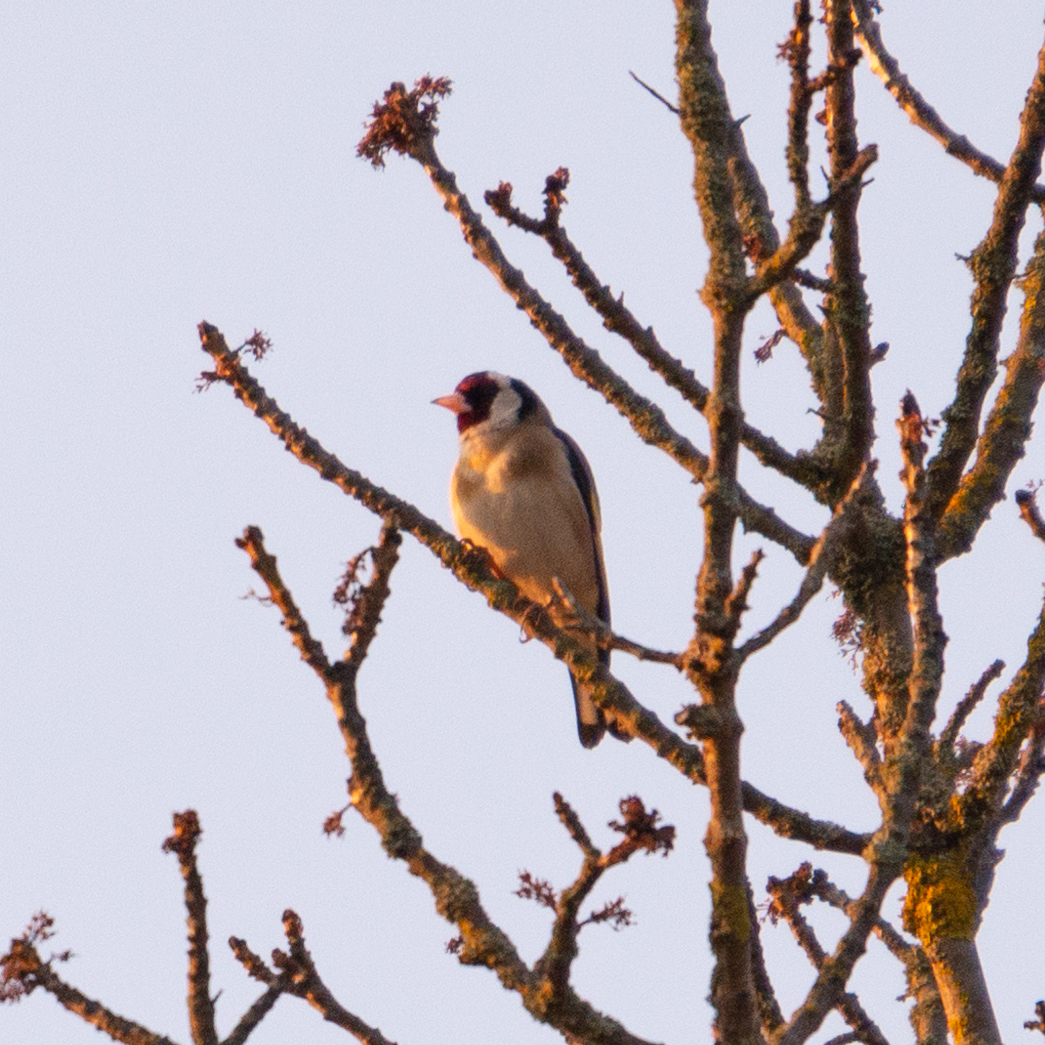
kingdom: Animalia
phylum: Chordata
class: Aves
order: Passeriformes
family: Fringillidae
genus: Carduelis
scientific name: Carduelis carduelis
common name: European goldfinch
